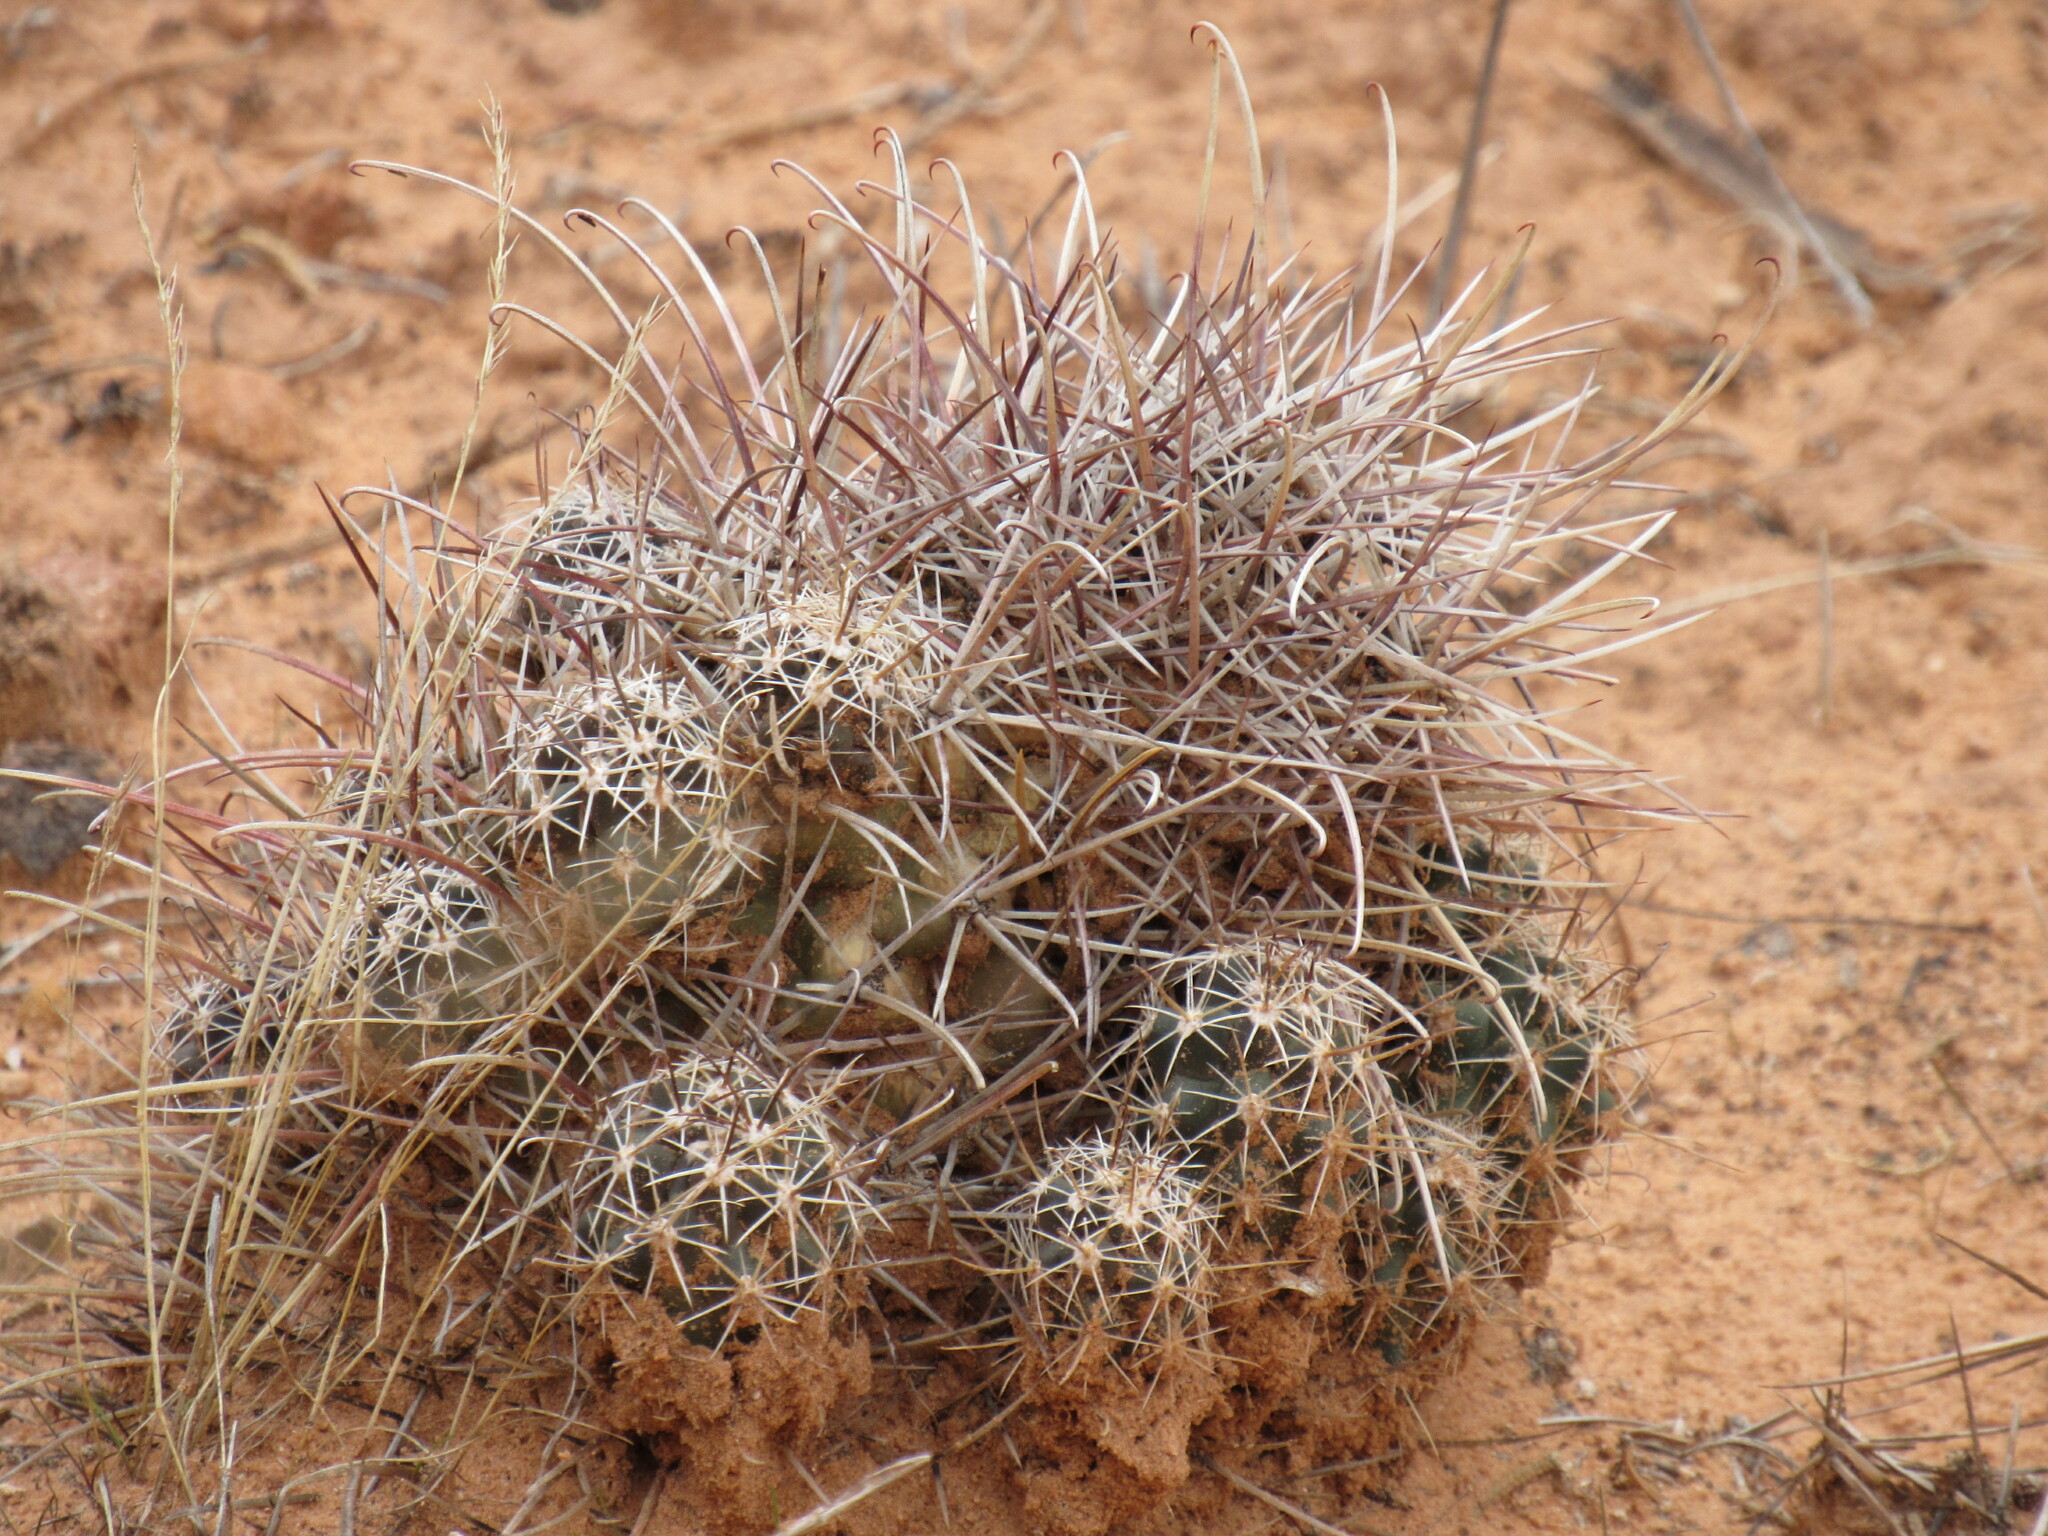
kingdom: Plantae
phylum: Tracheophyta
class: Magnoliopsida
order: Caryophyllales
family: Cactaceae
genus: Sclerocactus
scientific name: Sclerocactus parviflorus
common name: Small-flower fishhook cactus
